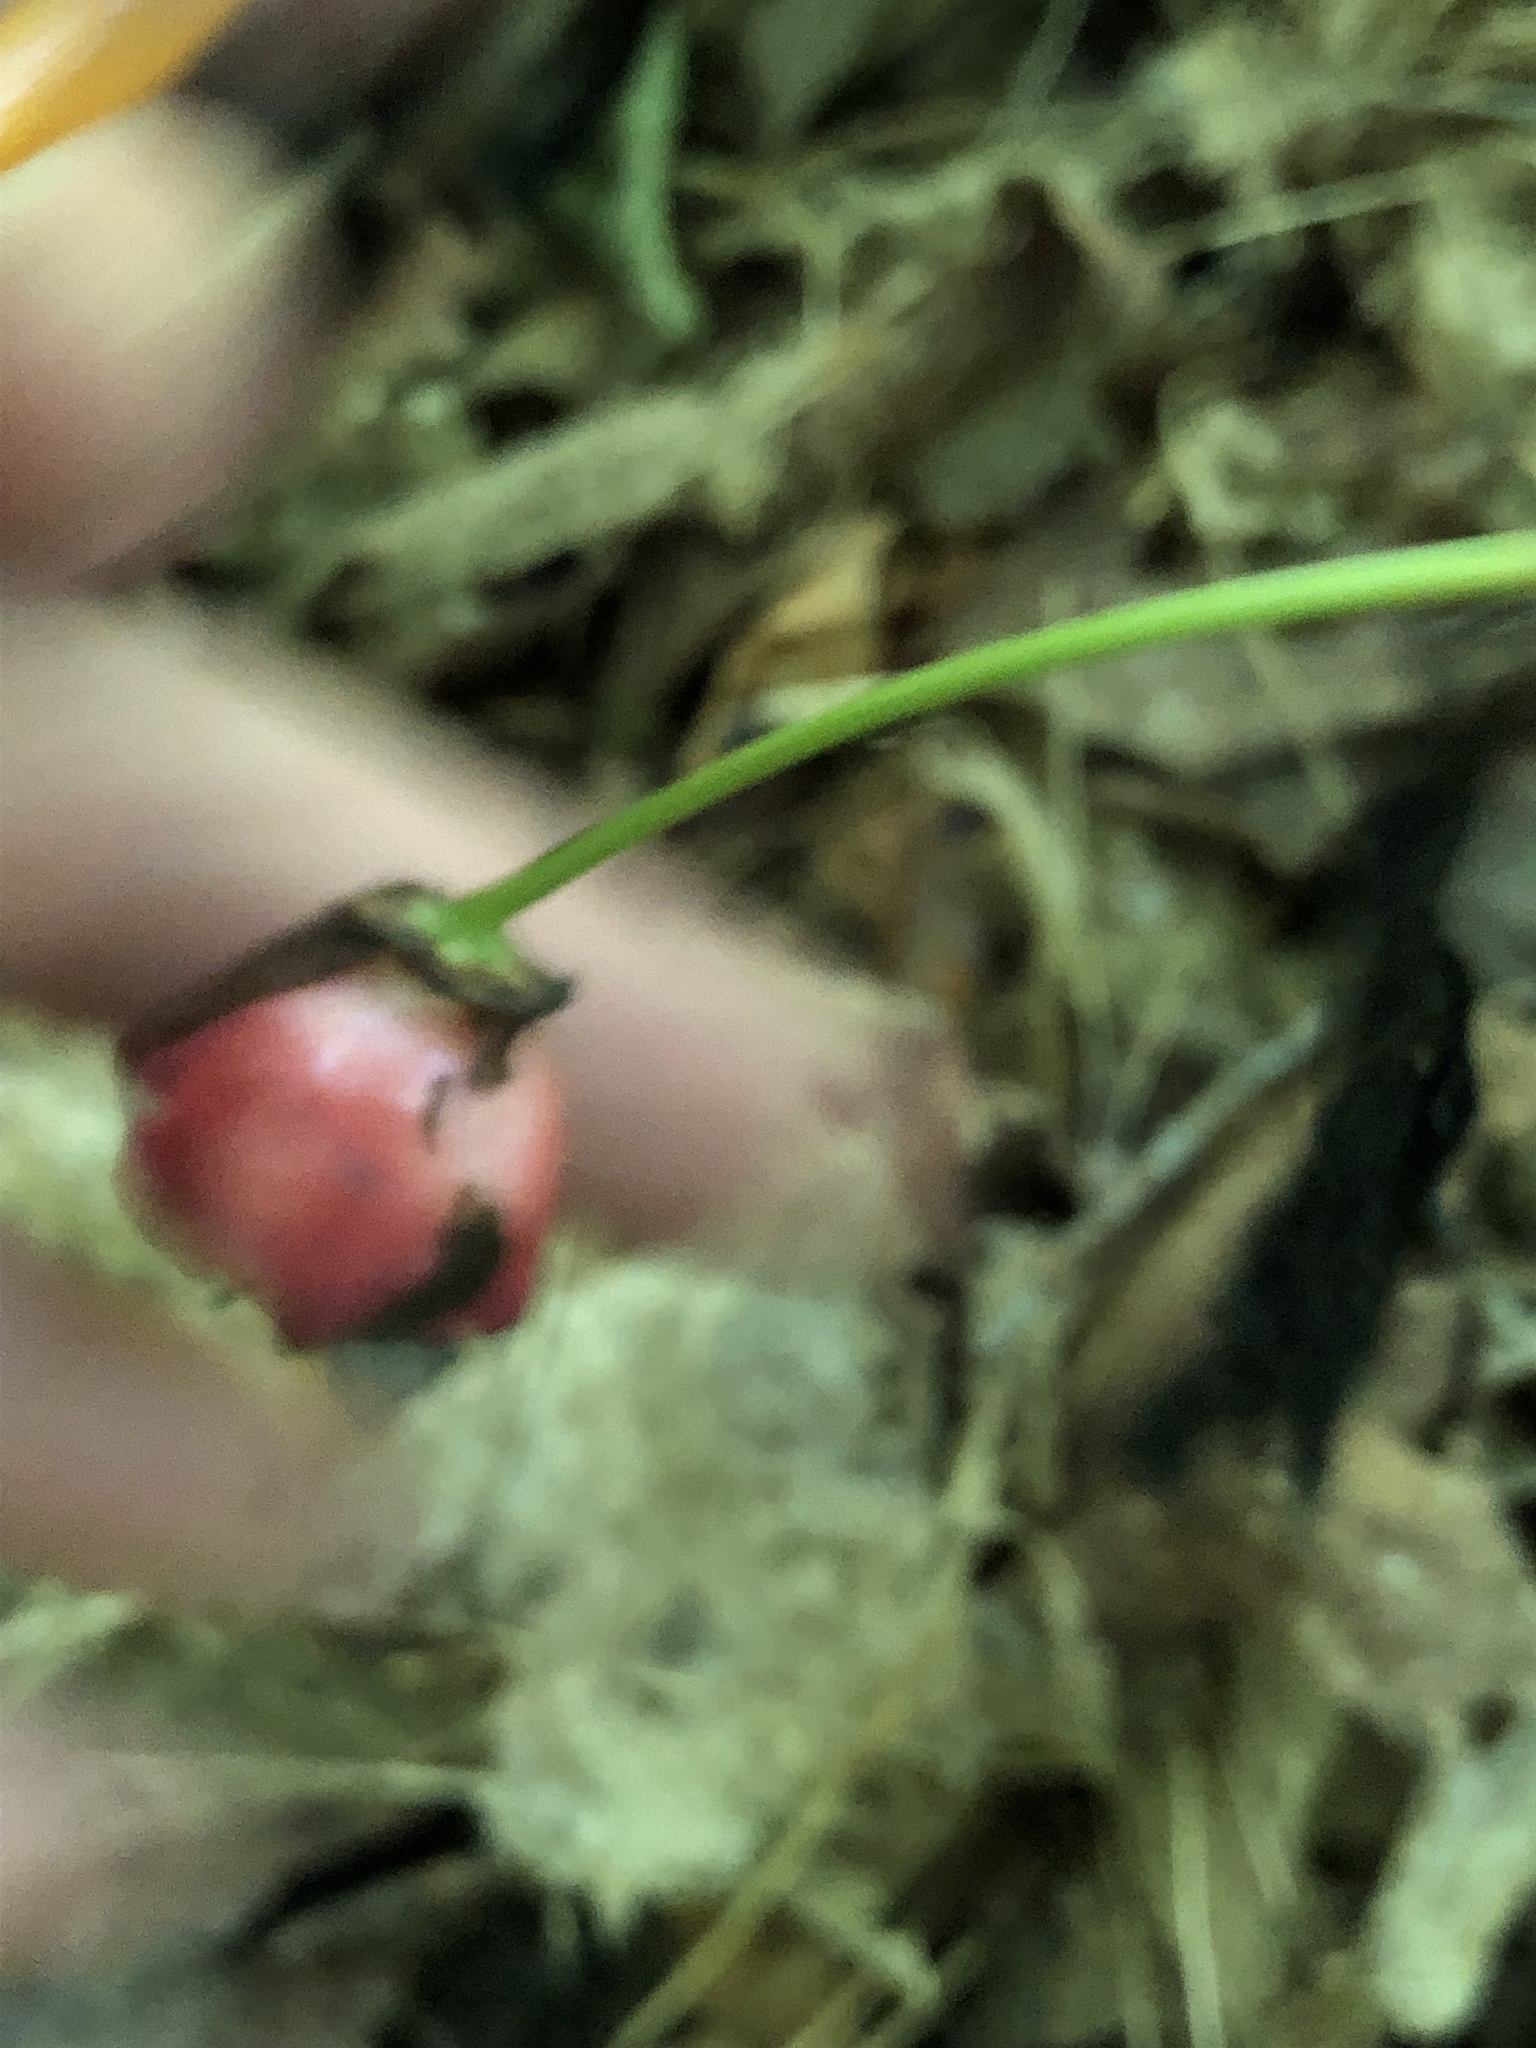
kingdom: Plantae
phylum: Tracheophyta
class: Liliopsida
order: Liliales
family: Melanthiaceae
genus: Trillium
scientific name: Trillium erectum
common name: Purple trillium
